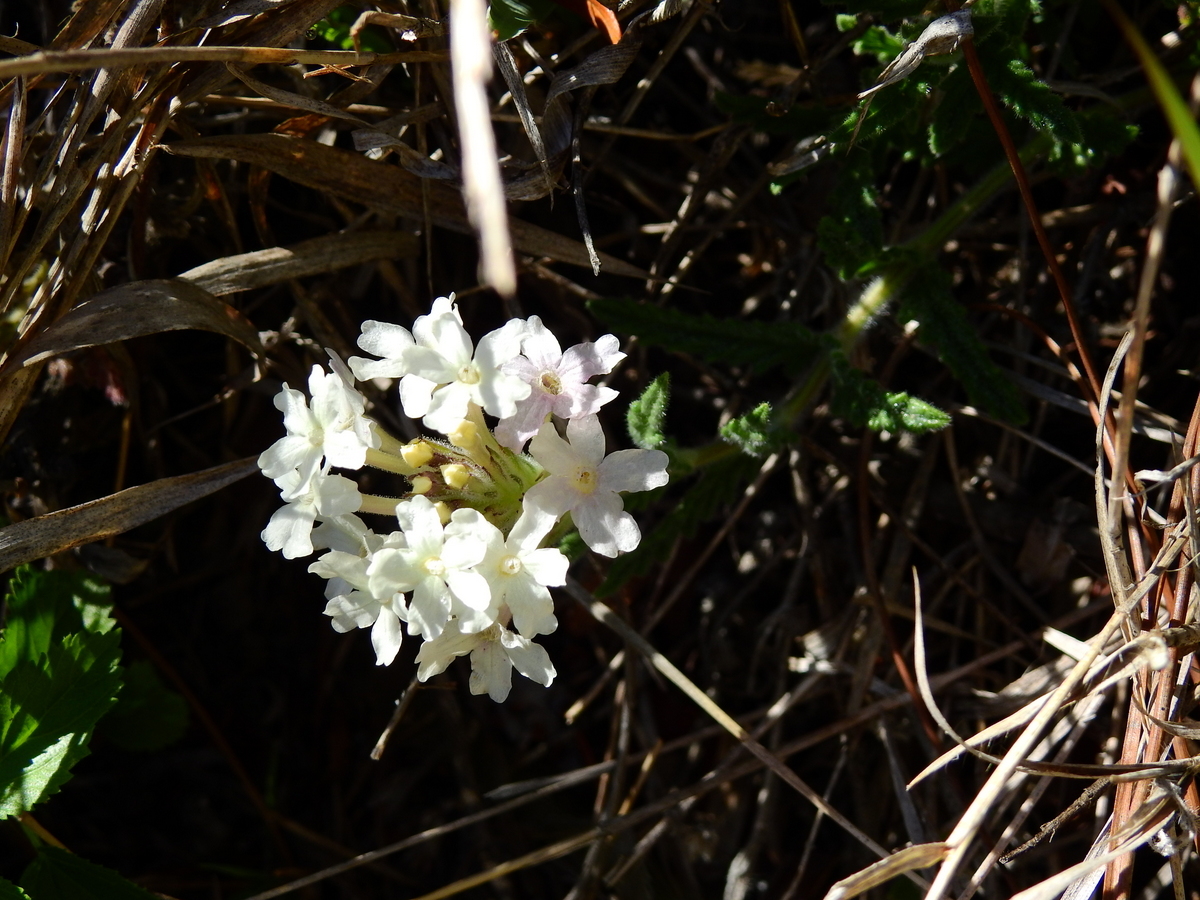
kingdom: Plantae
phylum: Tracheophyta
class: Magnoliopsida
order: Lamiales
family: Verbenaceae
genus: Verbena
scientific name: Verbena platensis
